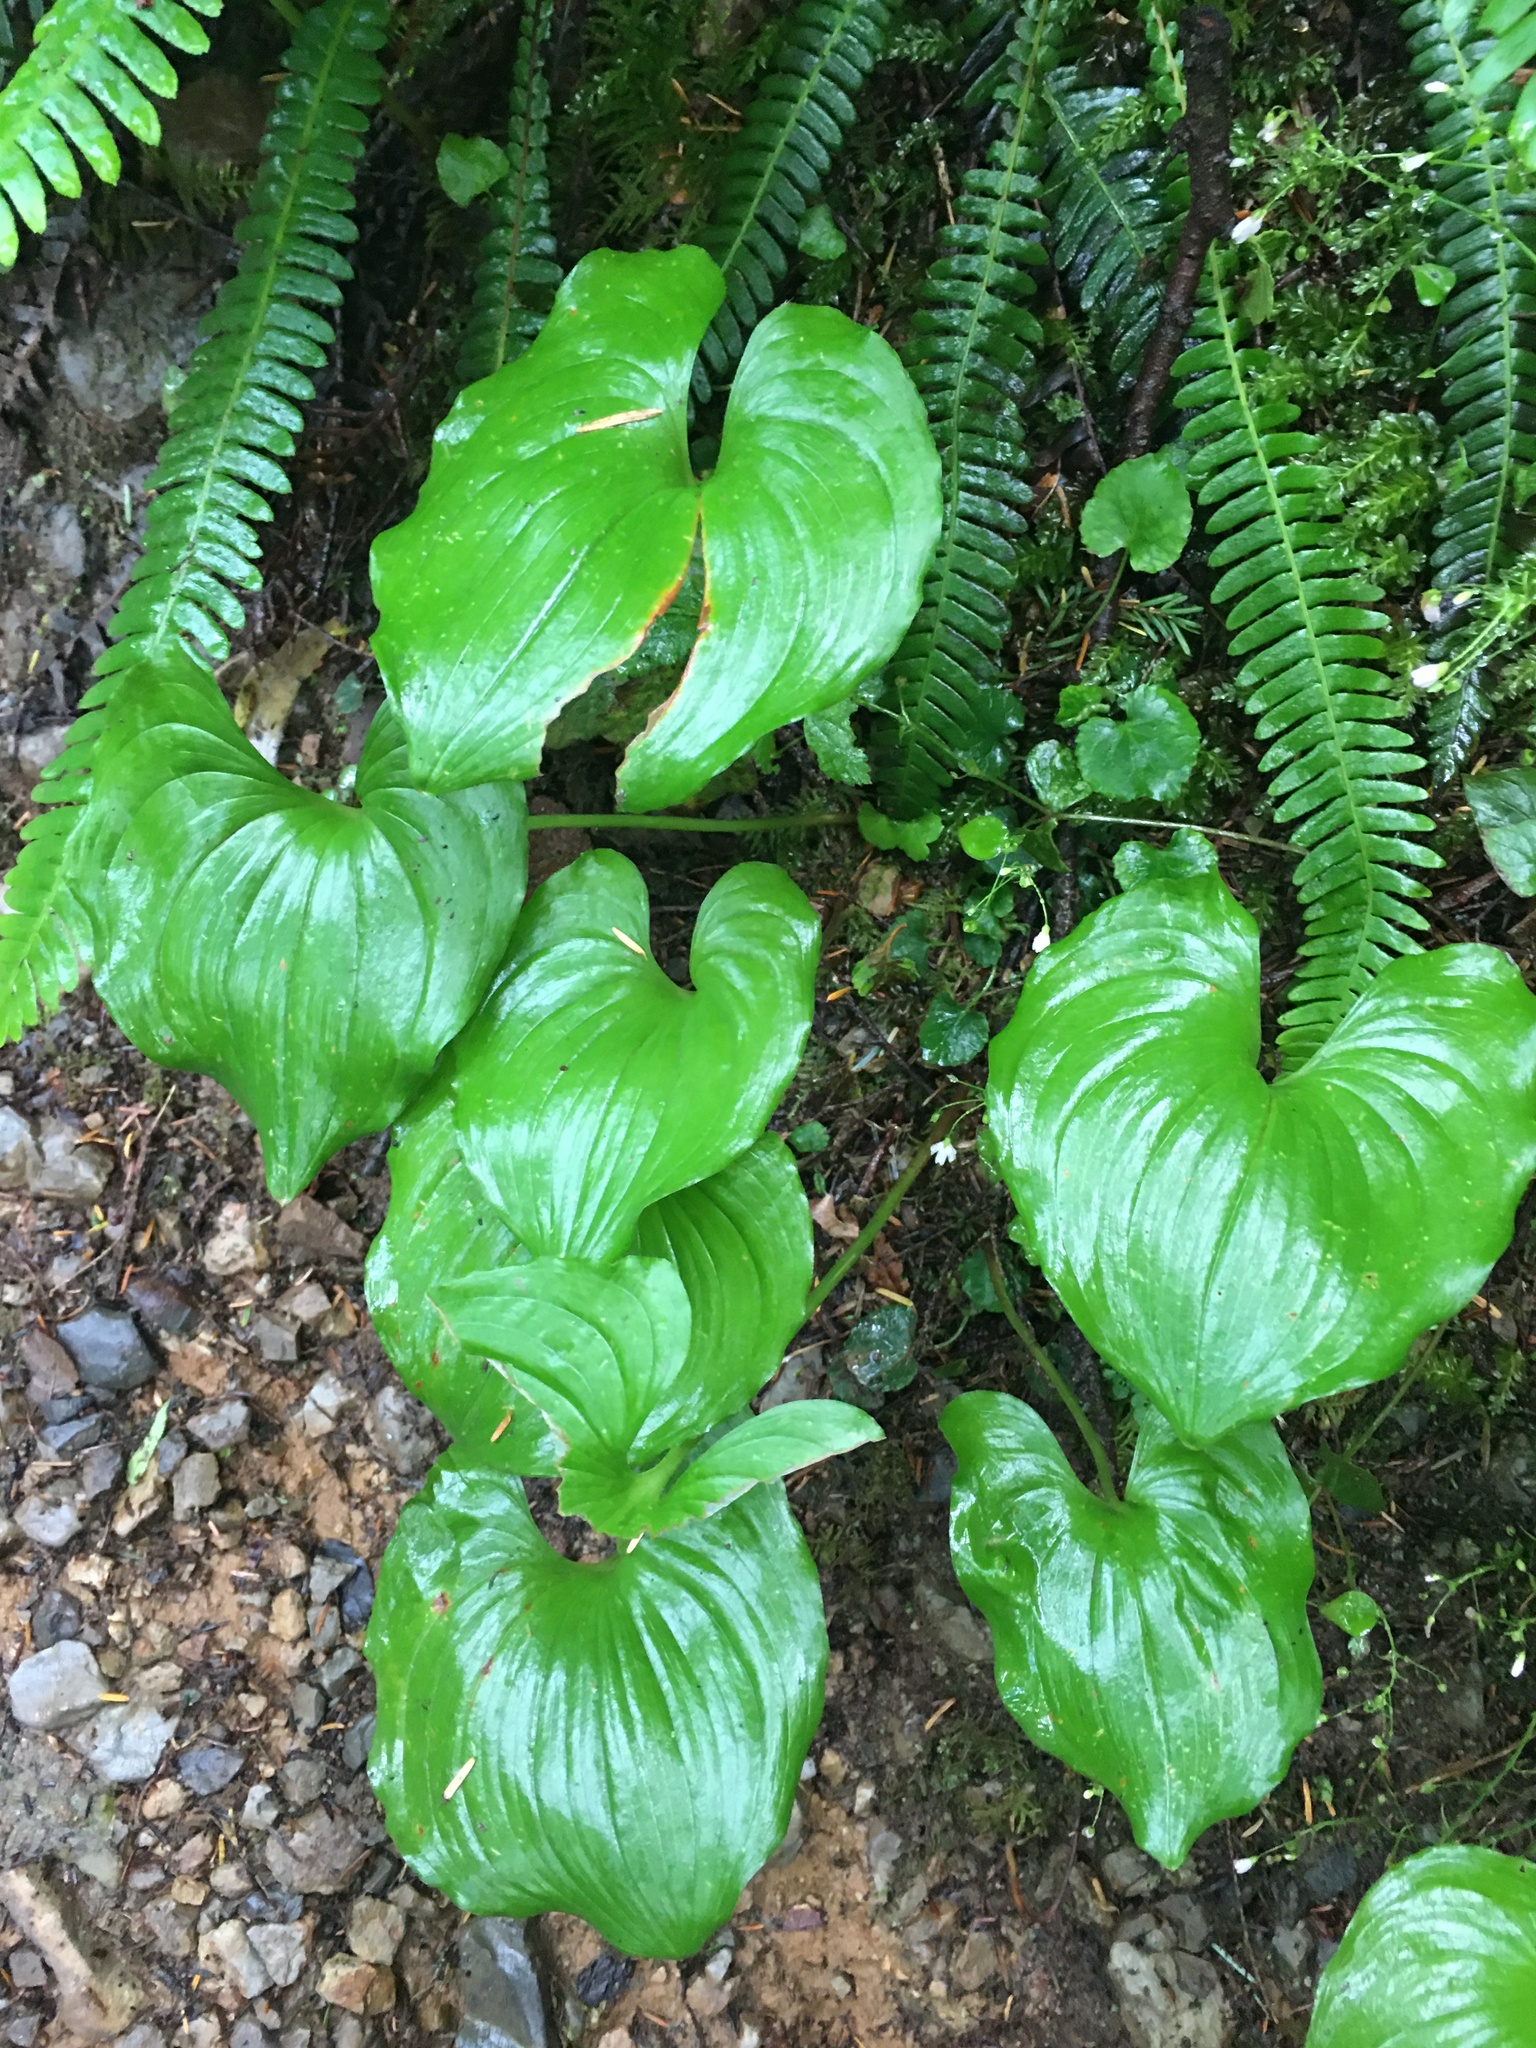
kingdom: Plantae
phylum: Tracheophyta
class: Liliopsida
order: Asparagales
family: Asparagaceae
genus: Maianthemum
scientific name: Maianthemum dilatatum
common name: False lily-of-the-valley
